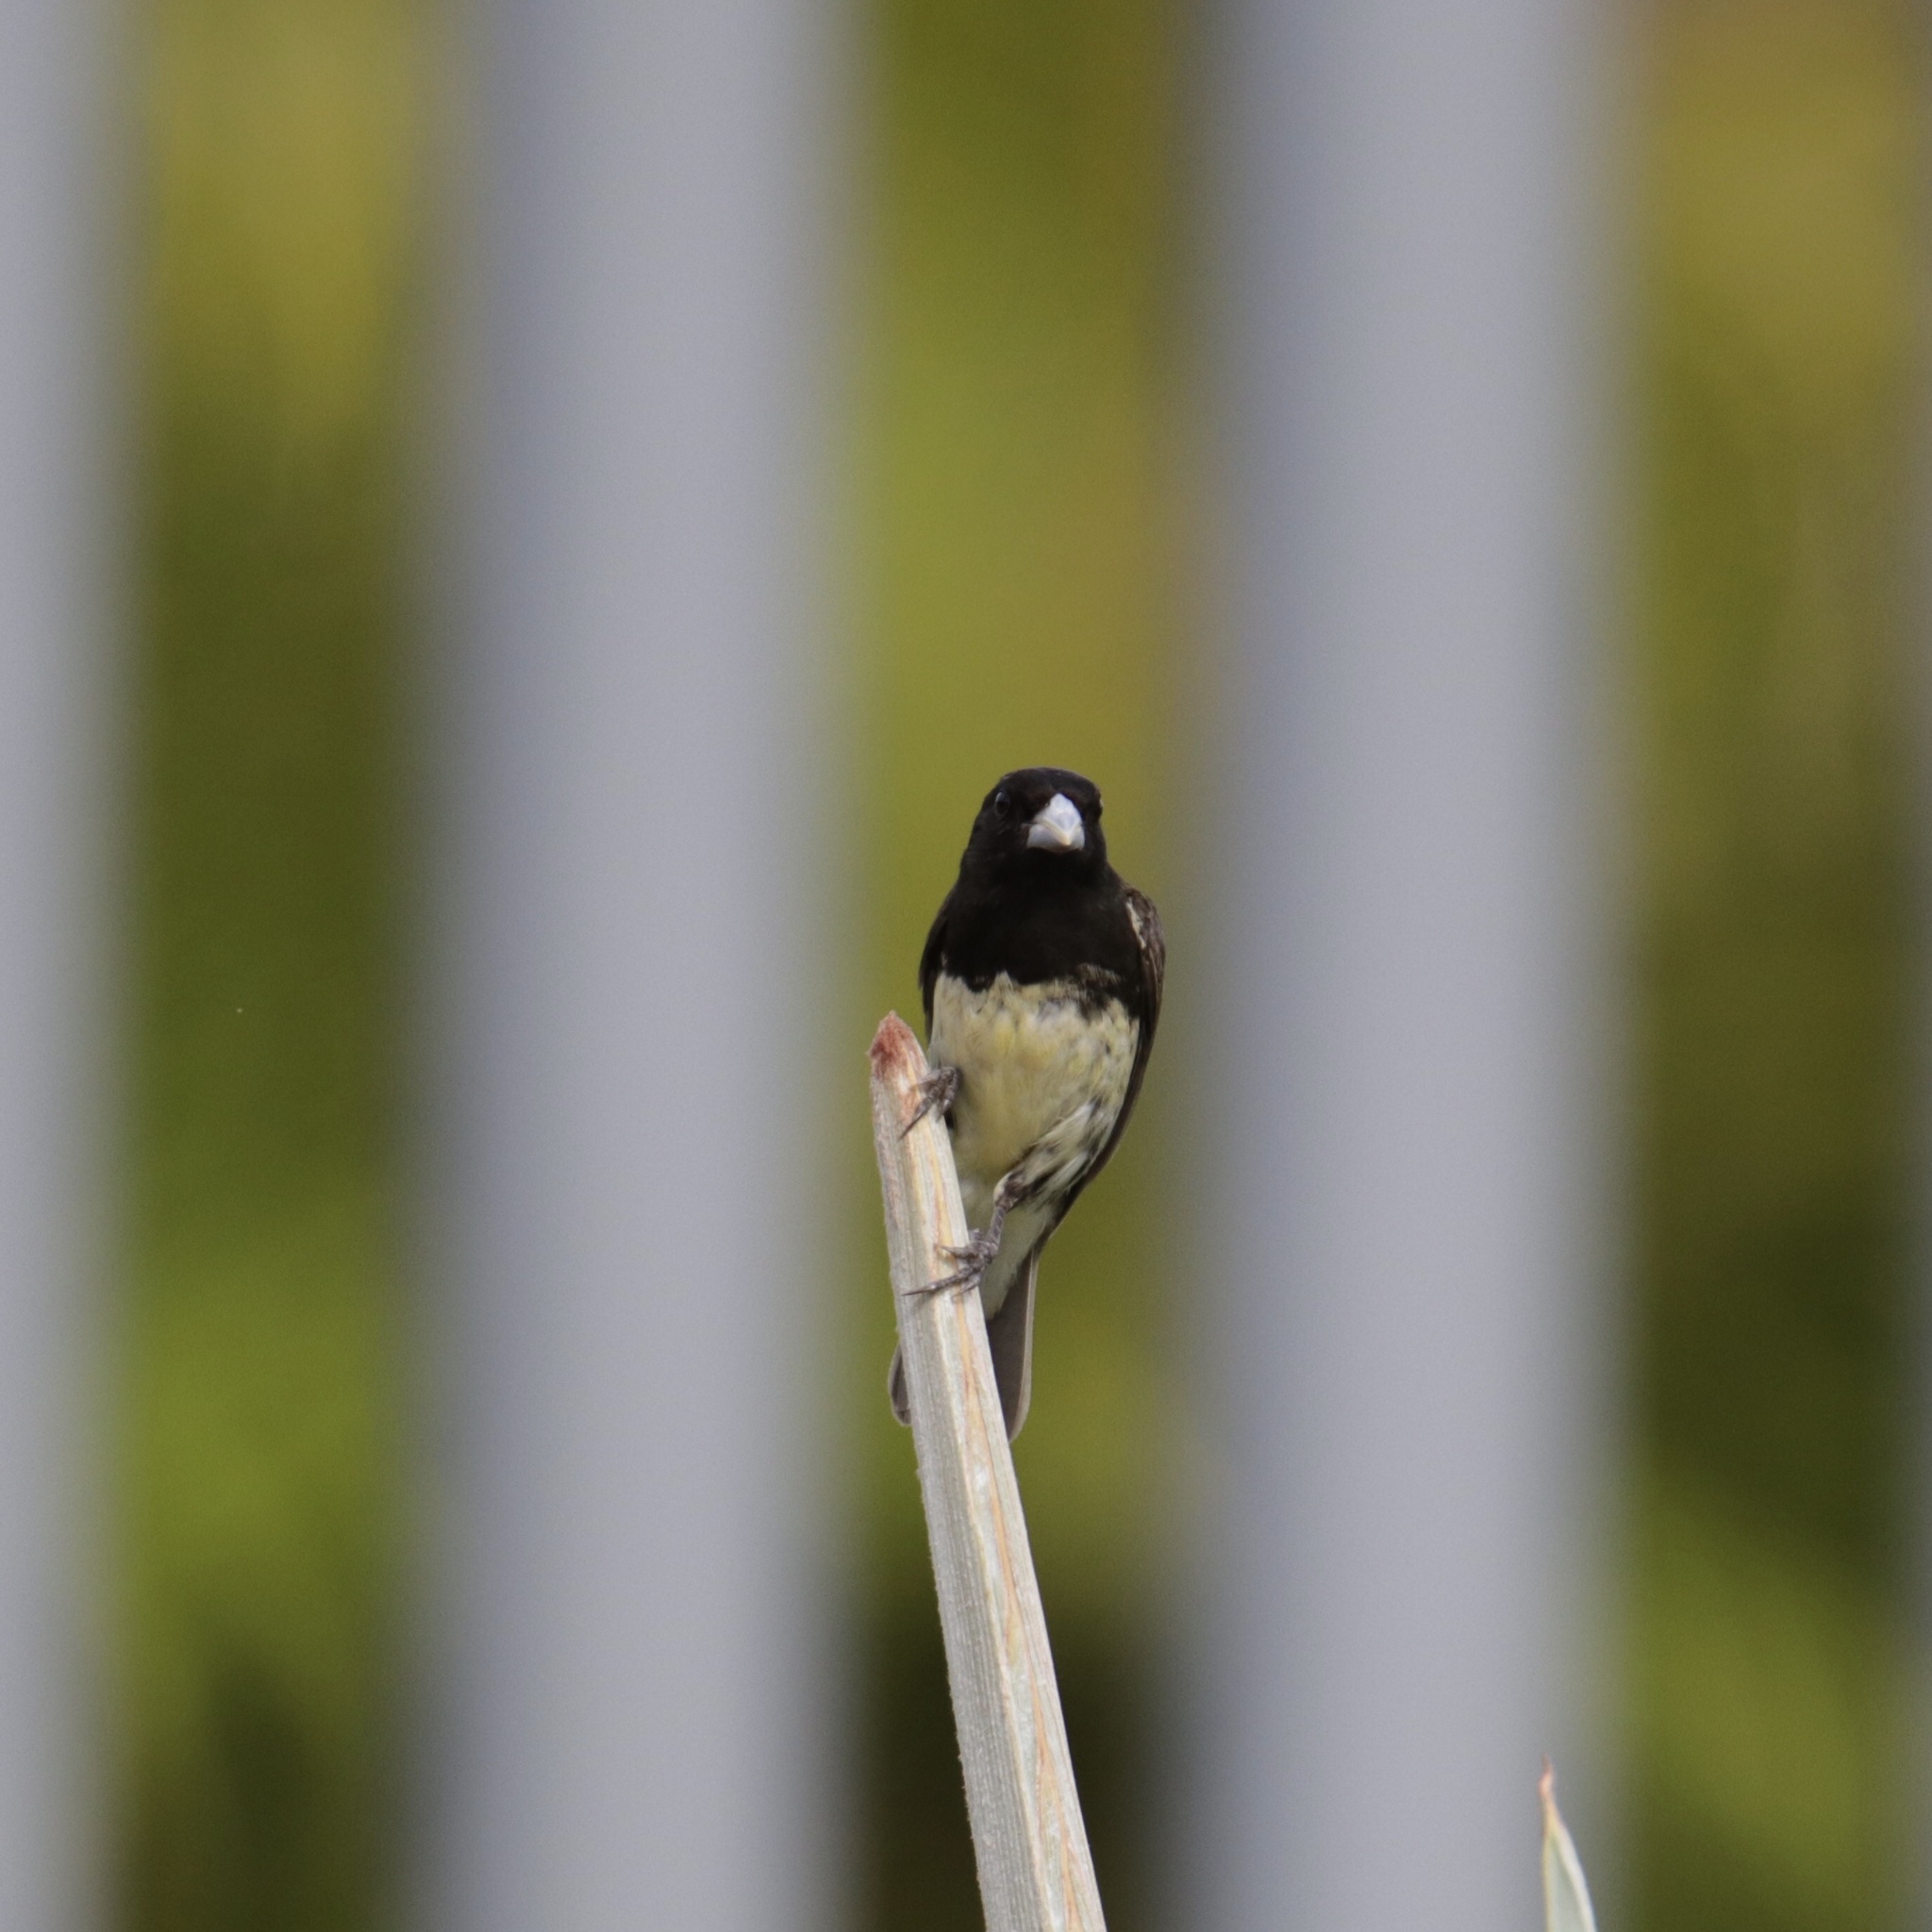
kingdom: Animalia
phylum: Chordata
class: Aves
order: Passeriformes
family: Thraupidae
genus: Sporophila
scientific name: Sporophila nigricollis
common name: Yellow-bellied seedeater
